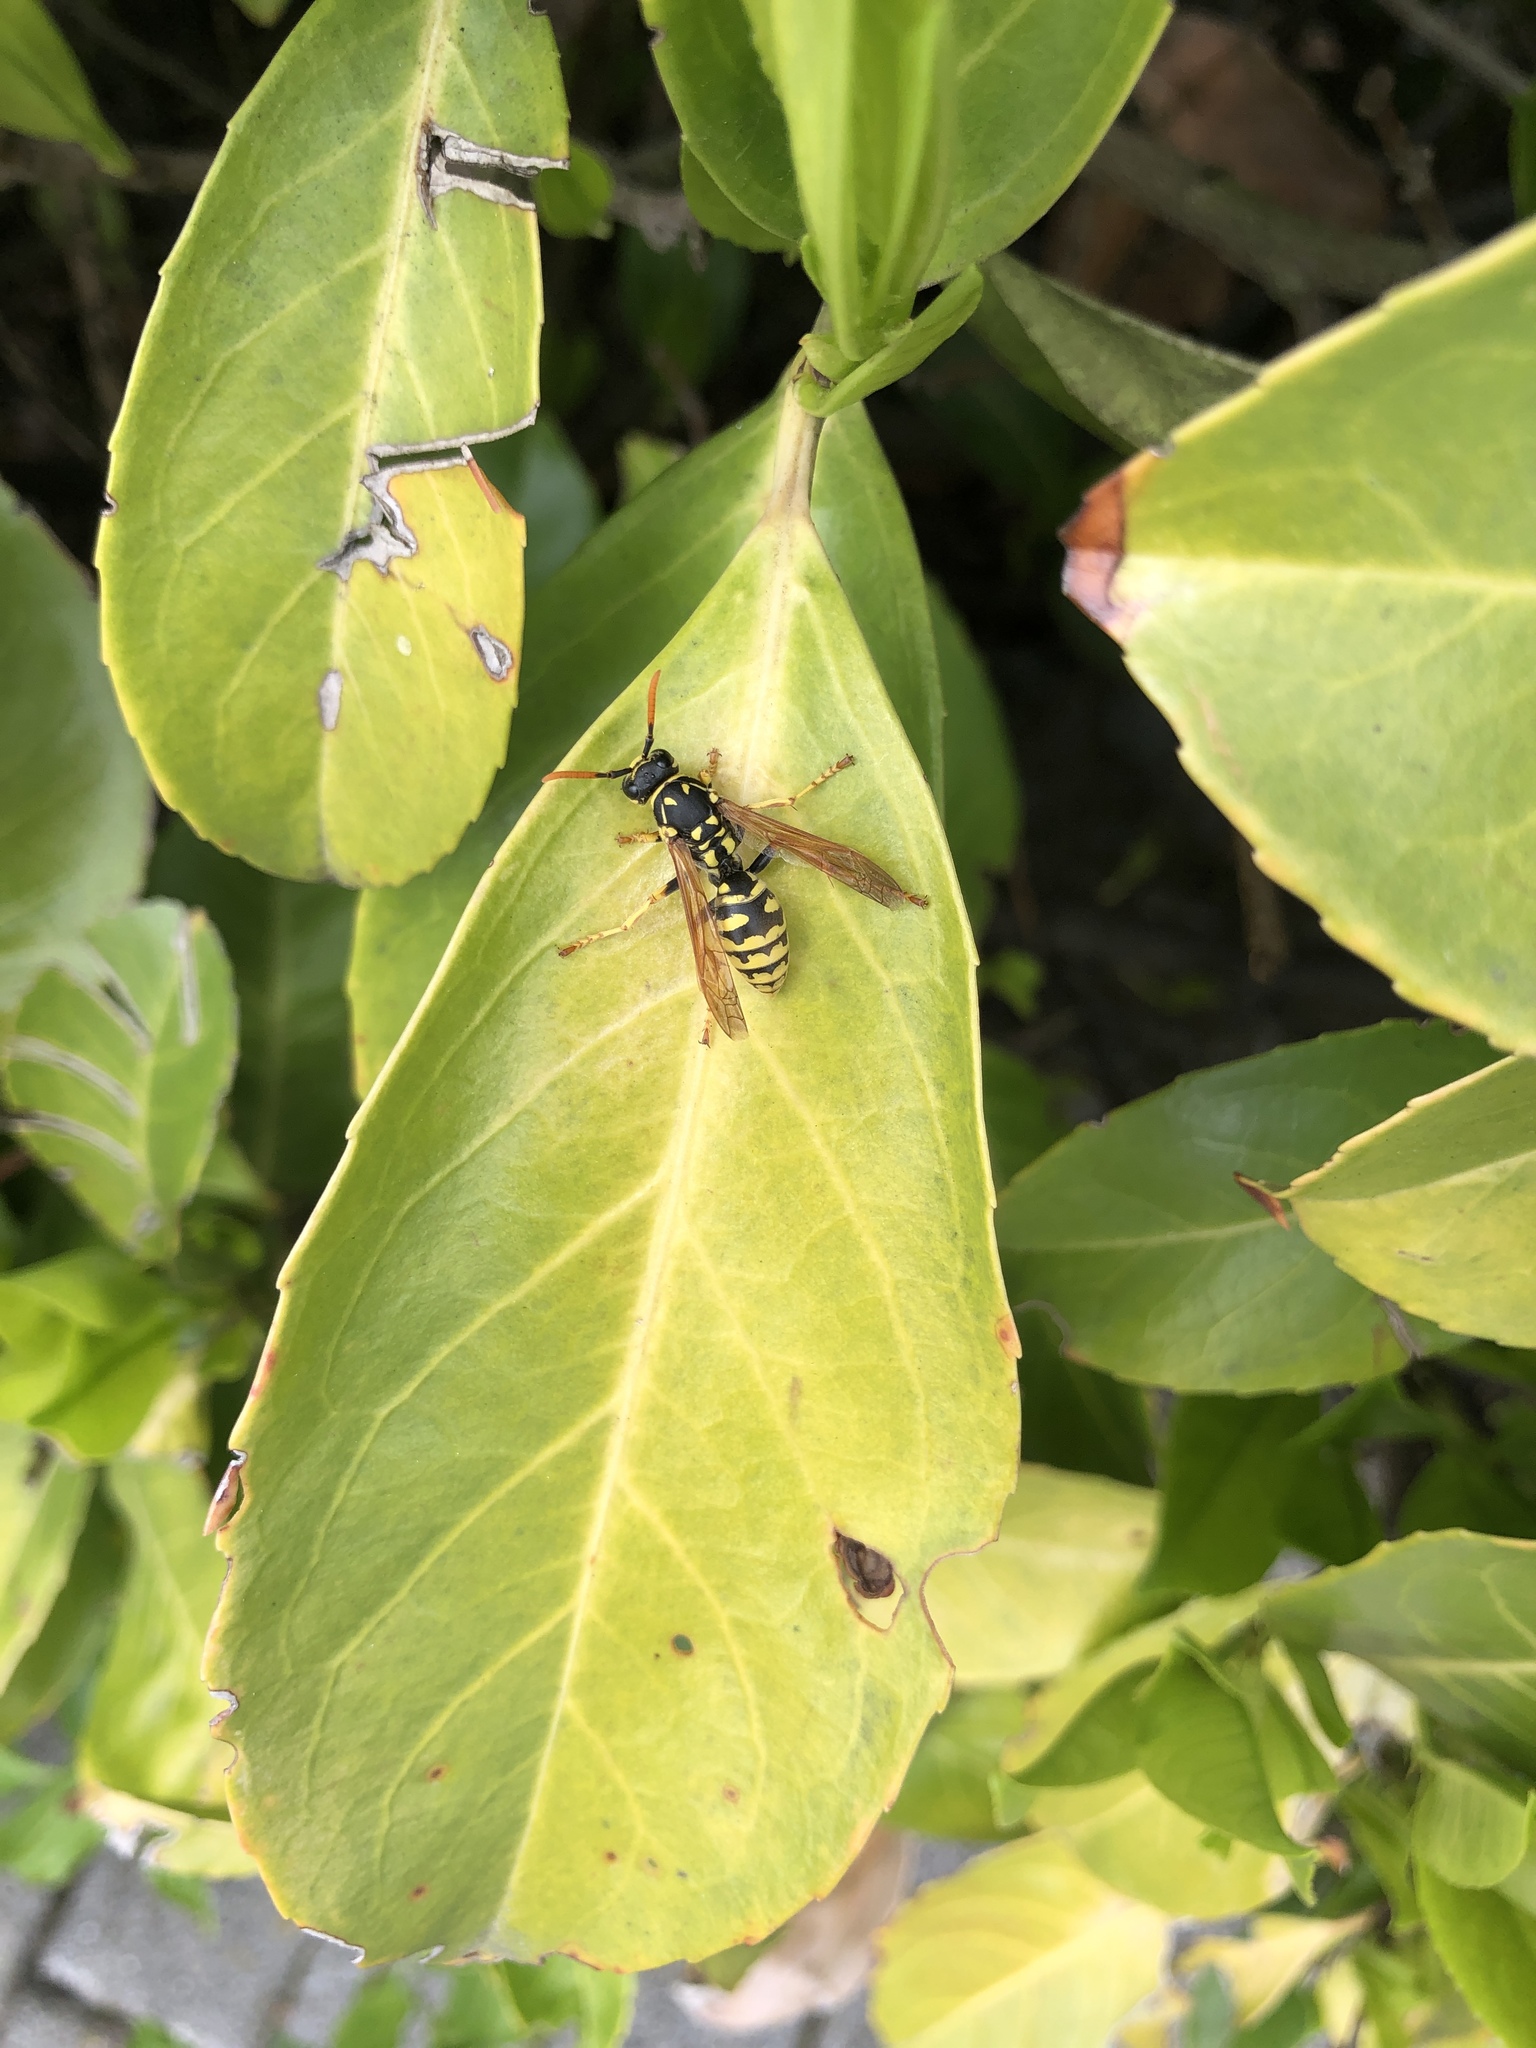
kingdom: Animalia
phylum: Arthropoda
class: Insecta
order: Hymenoptera
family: Eumenidae
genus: Polistes
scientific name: Polistes dominula
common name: Paper wasp
